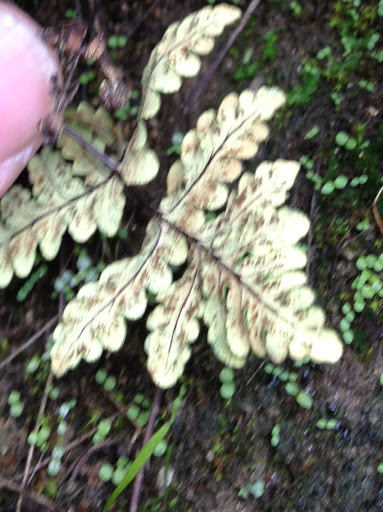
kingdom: Plantae
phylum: Tracheophyta
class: Polypodiopsida
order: Polypodiales
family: Pteridaceae
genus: Pentagramma
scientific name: Pentagramma triangularis
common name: Gold fern
